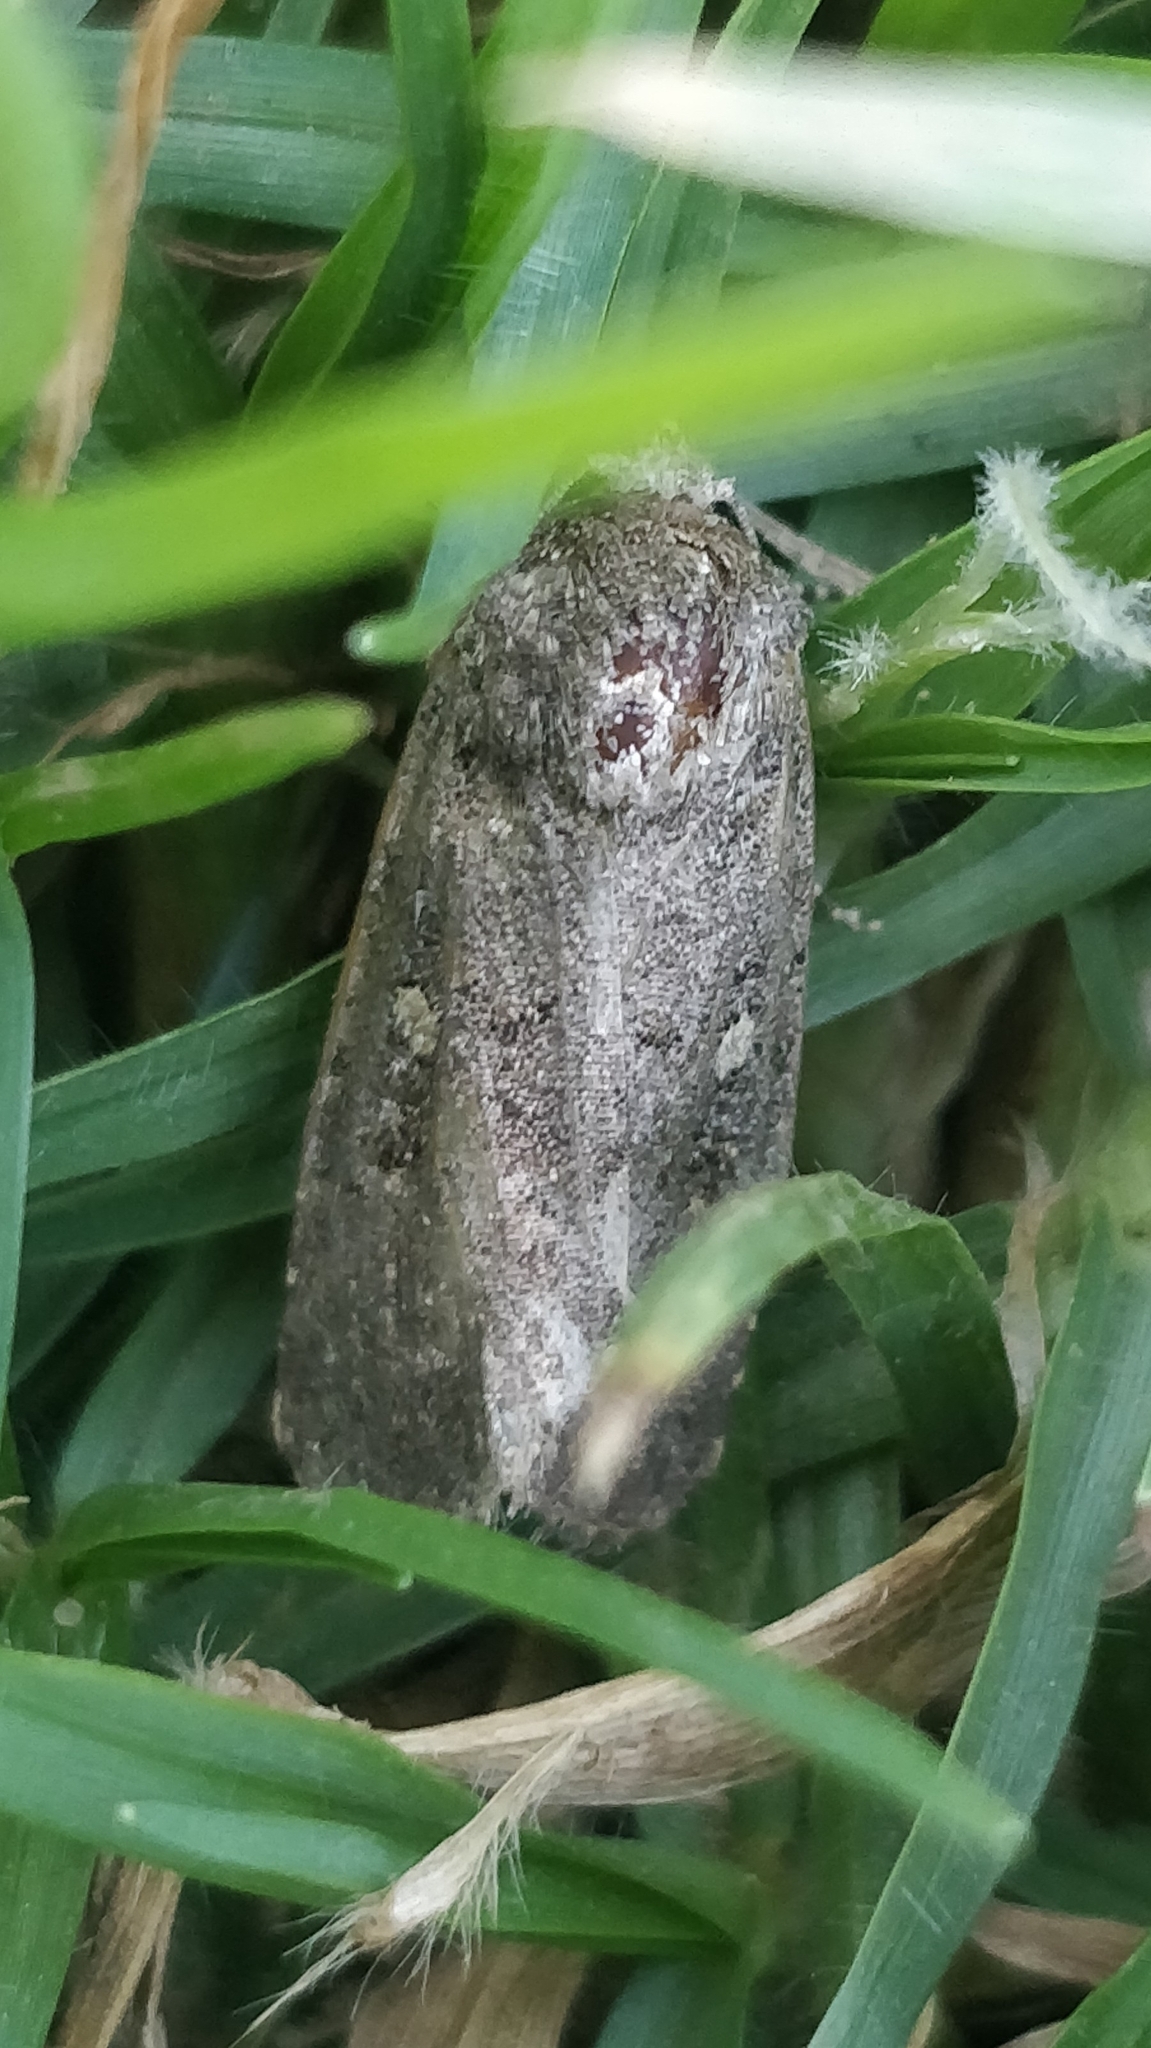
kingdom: Animalia
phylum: Arthropoda
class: Insecta
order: Lepidoptera
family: Noctuidae
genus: Spodoptera
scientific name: Spodoptera cilium
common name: Dark mottled willow
